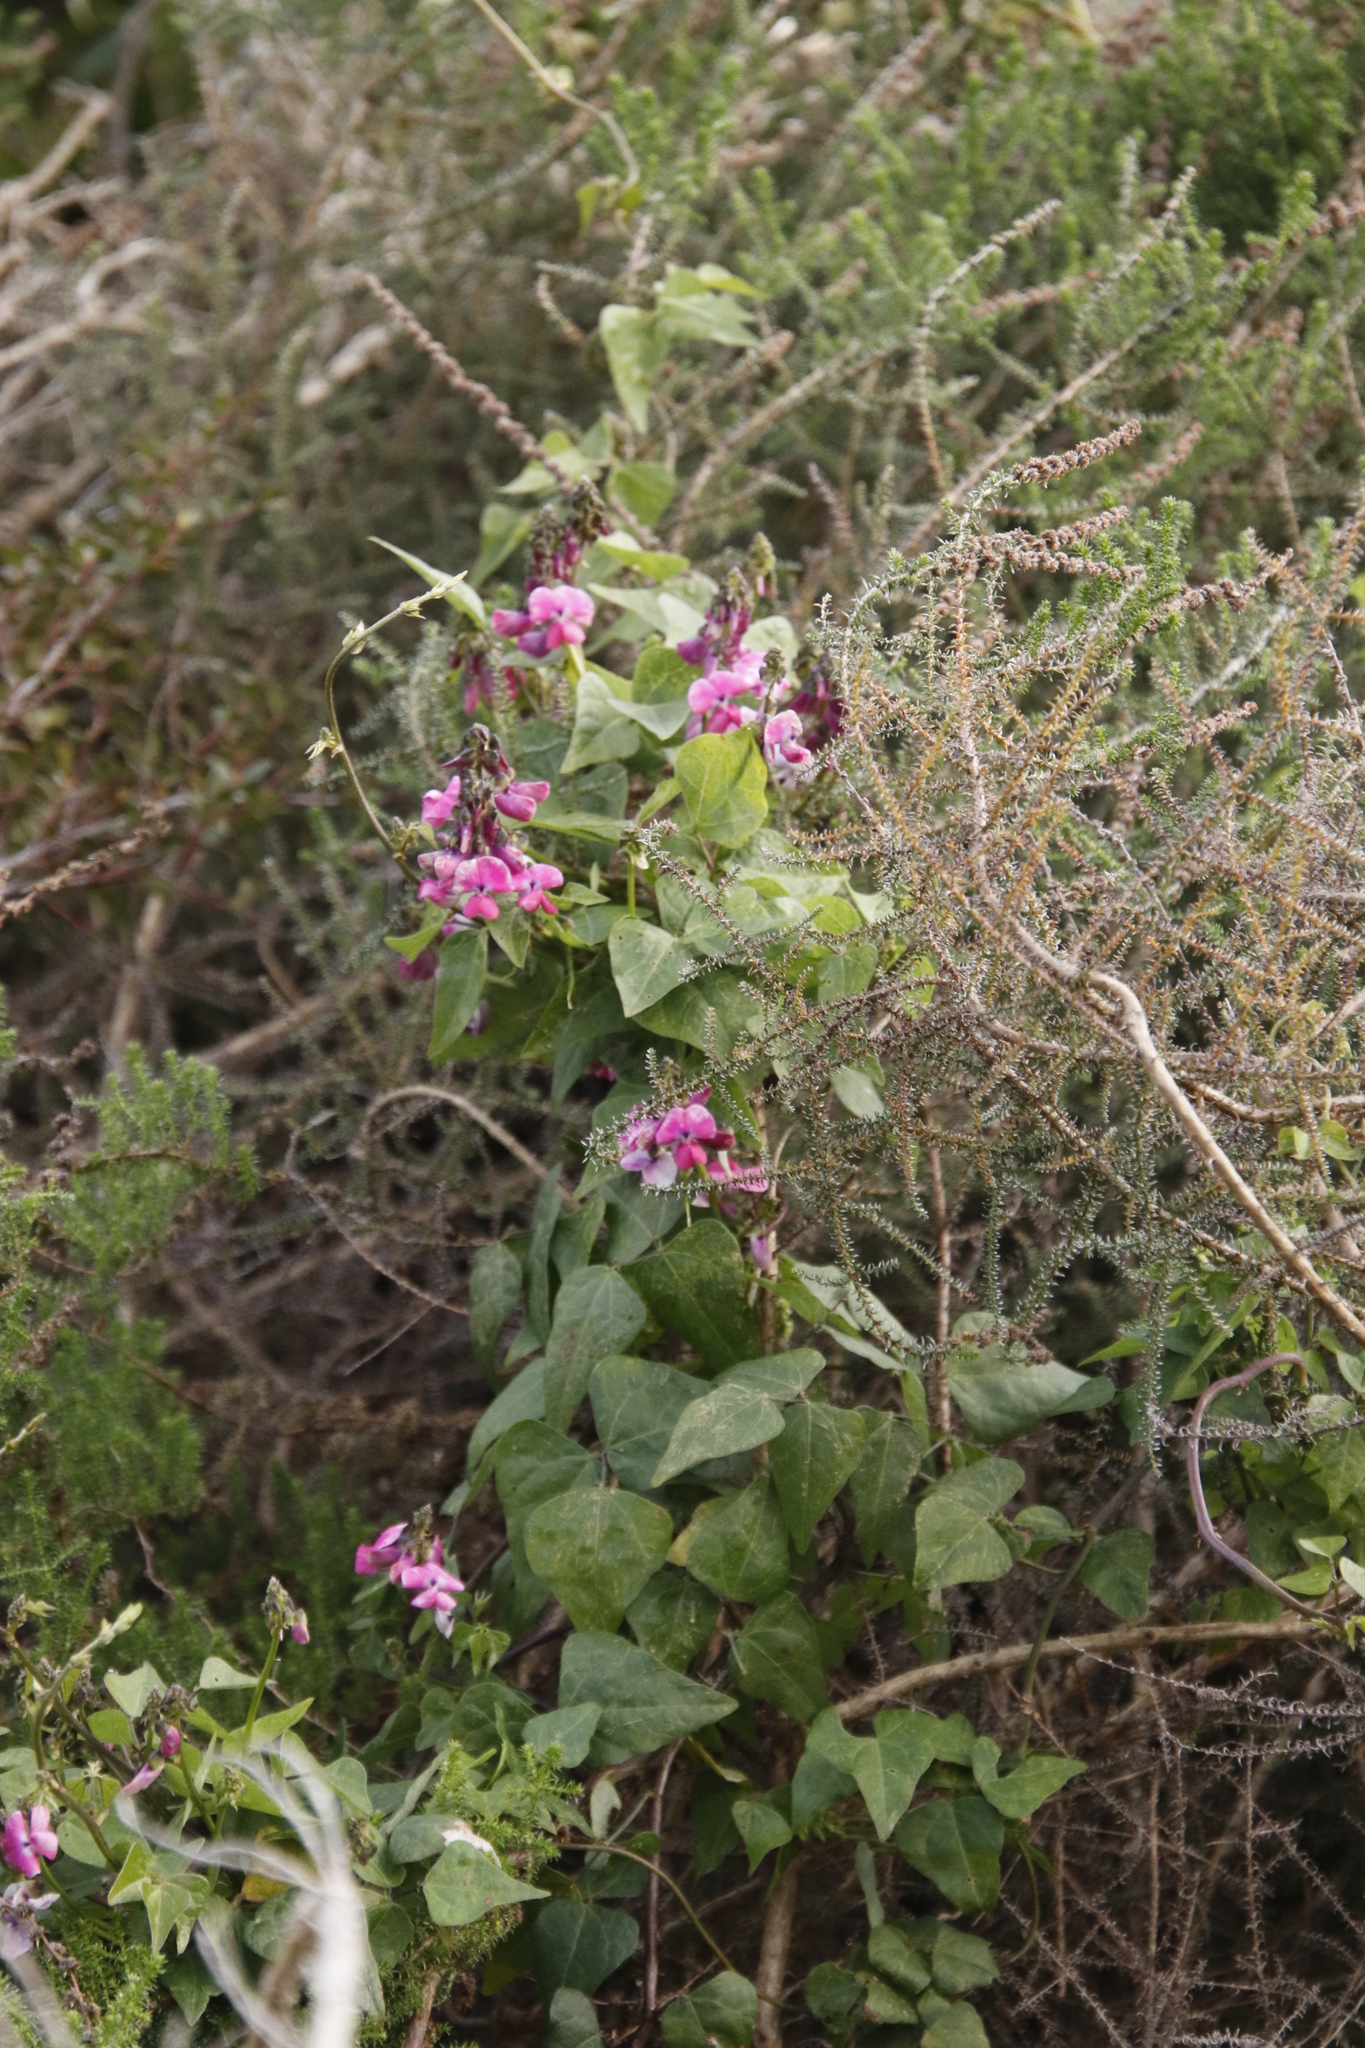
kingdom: Plantae
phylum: Tracheophyta
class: Magnoliopsida
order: Fabales
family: Fabaceae
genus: Dipogon
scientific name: Dipogon lignosus
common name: Okie bean
